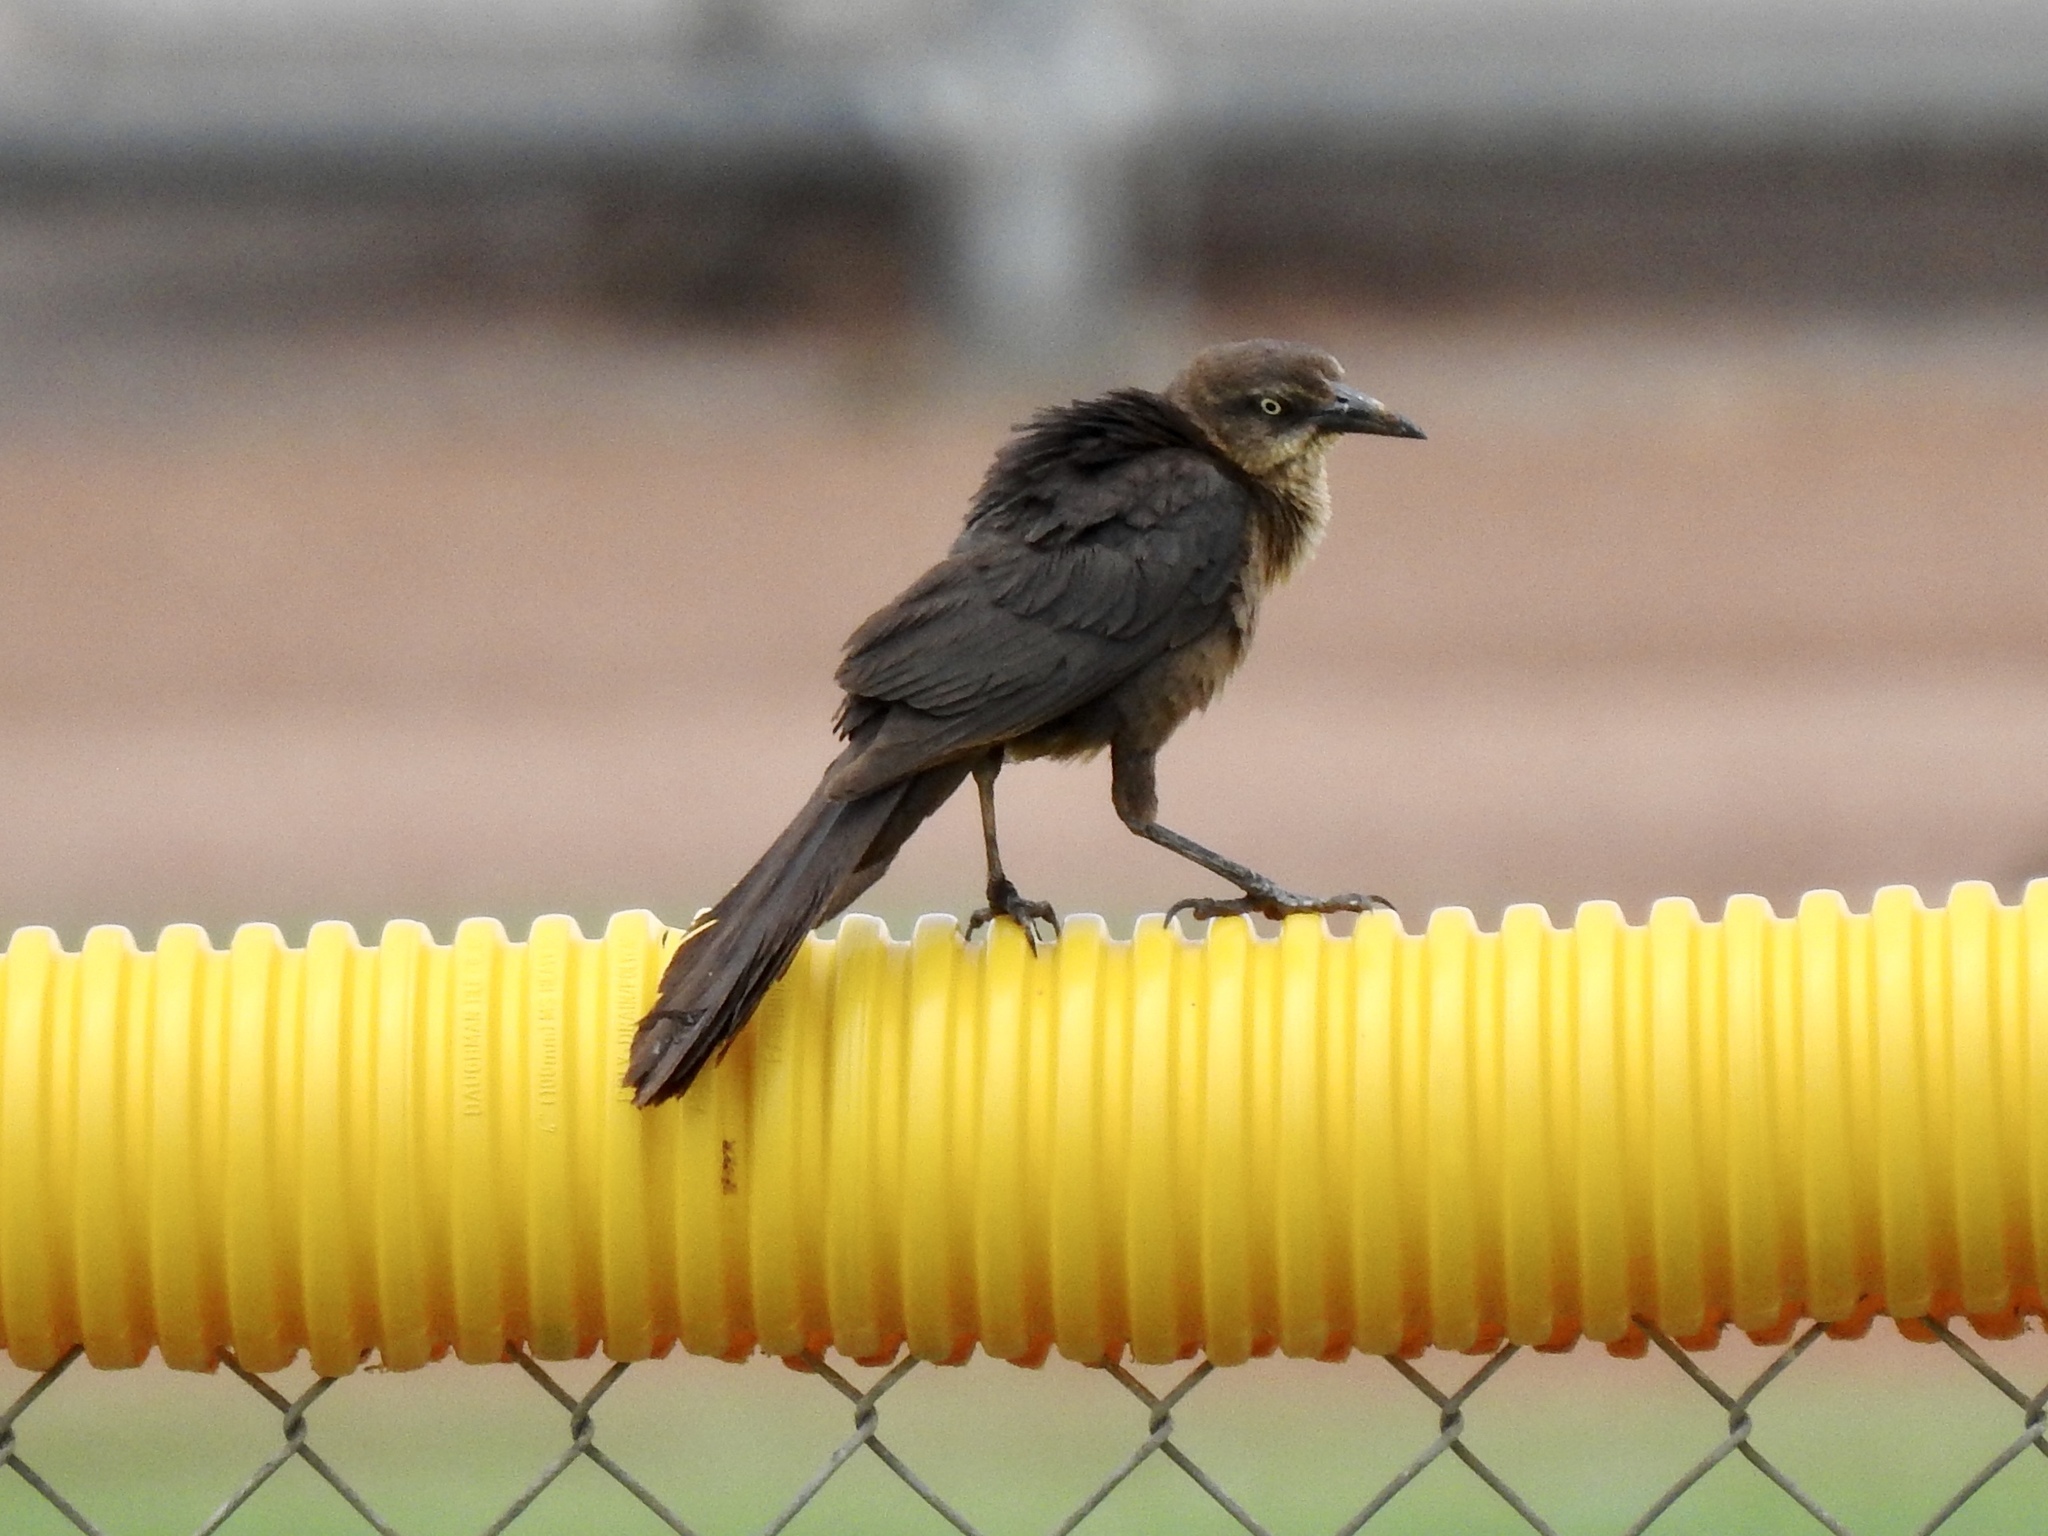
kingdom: Animalia
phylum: Chordata
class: Aves
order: Passeriformes
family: Icteridae
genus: Quiscalus
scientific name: Quiscalus mexicanus
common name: Great-tailed grackle
